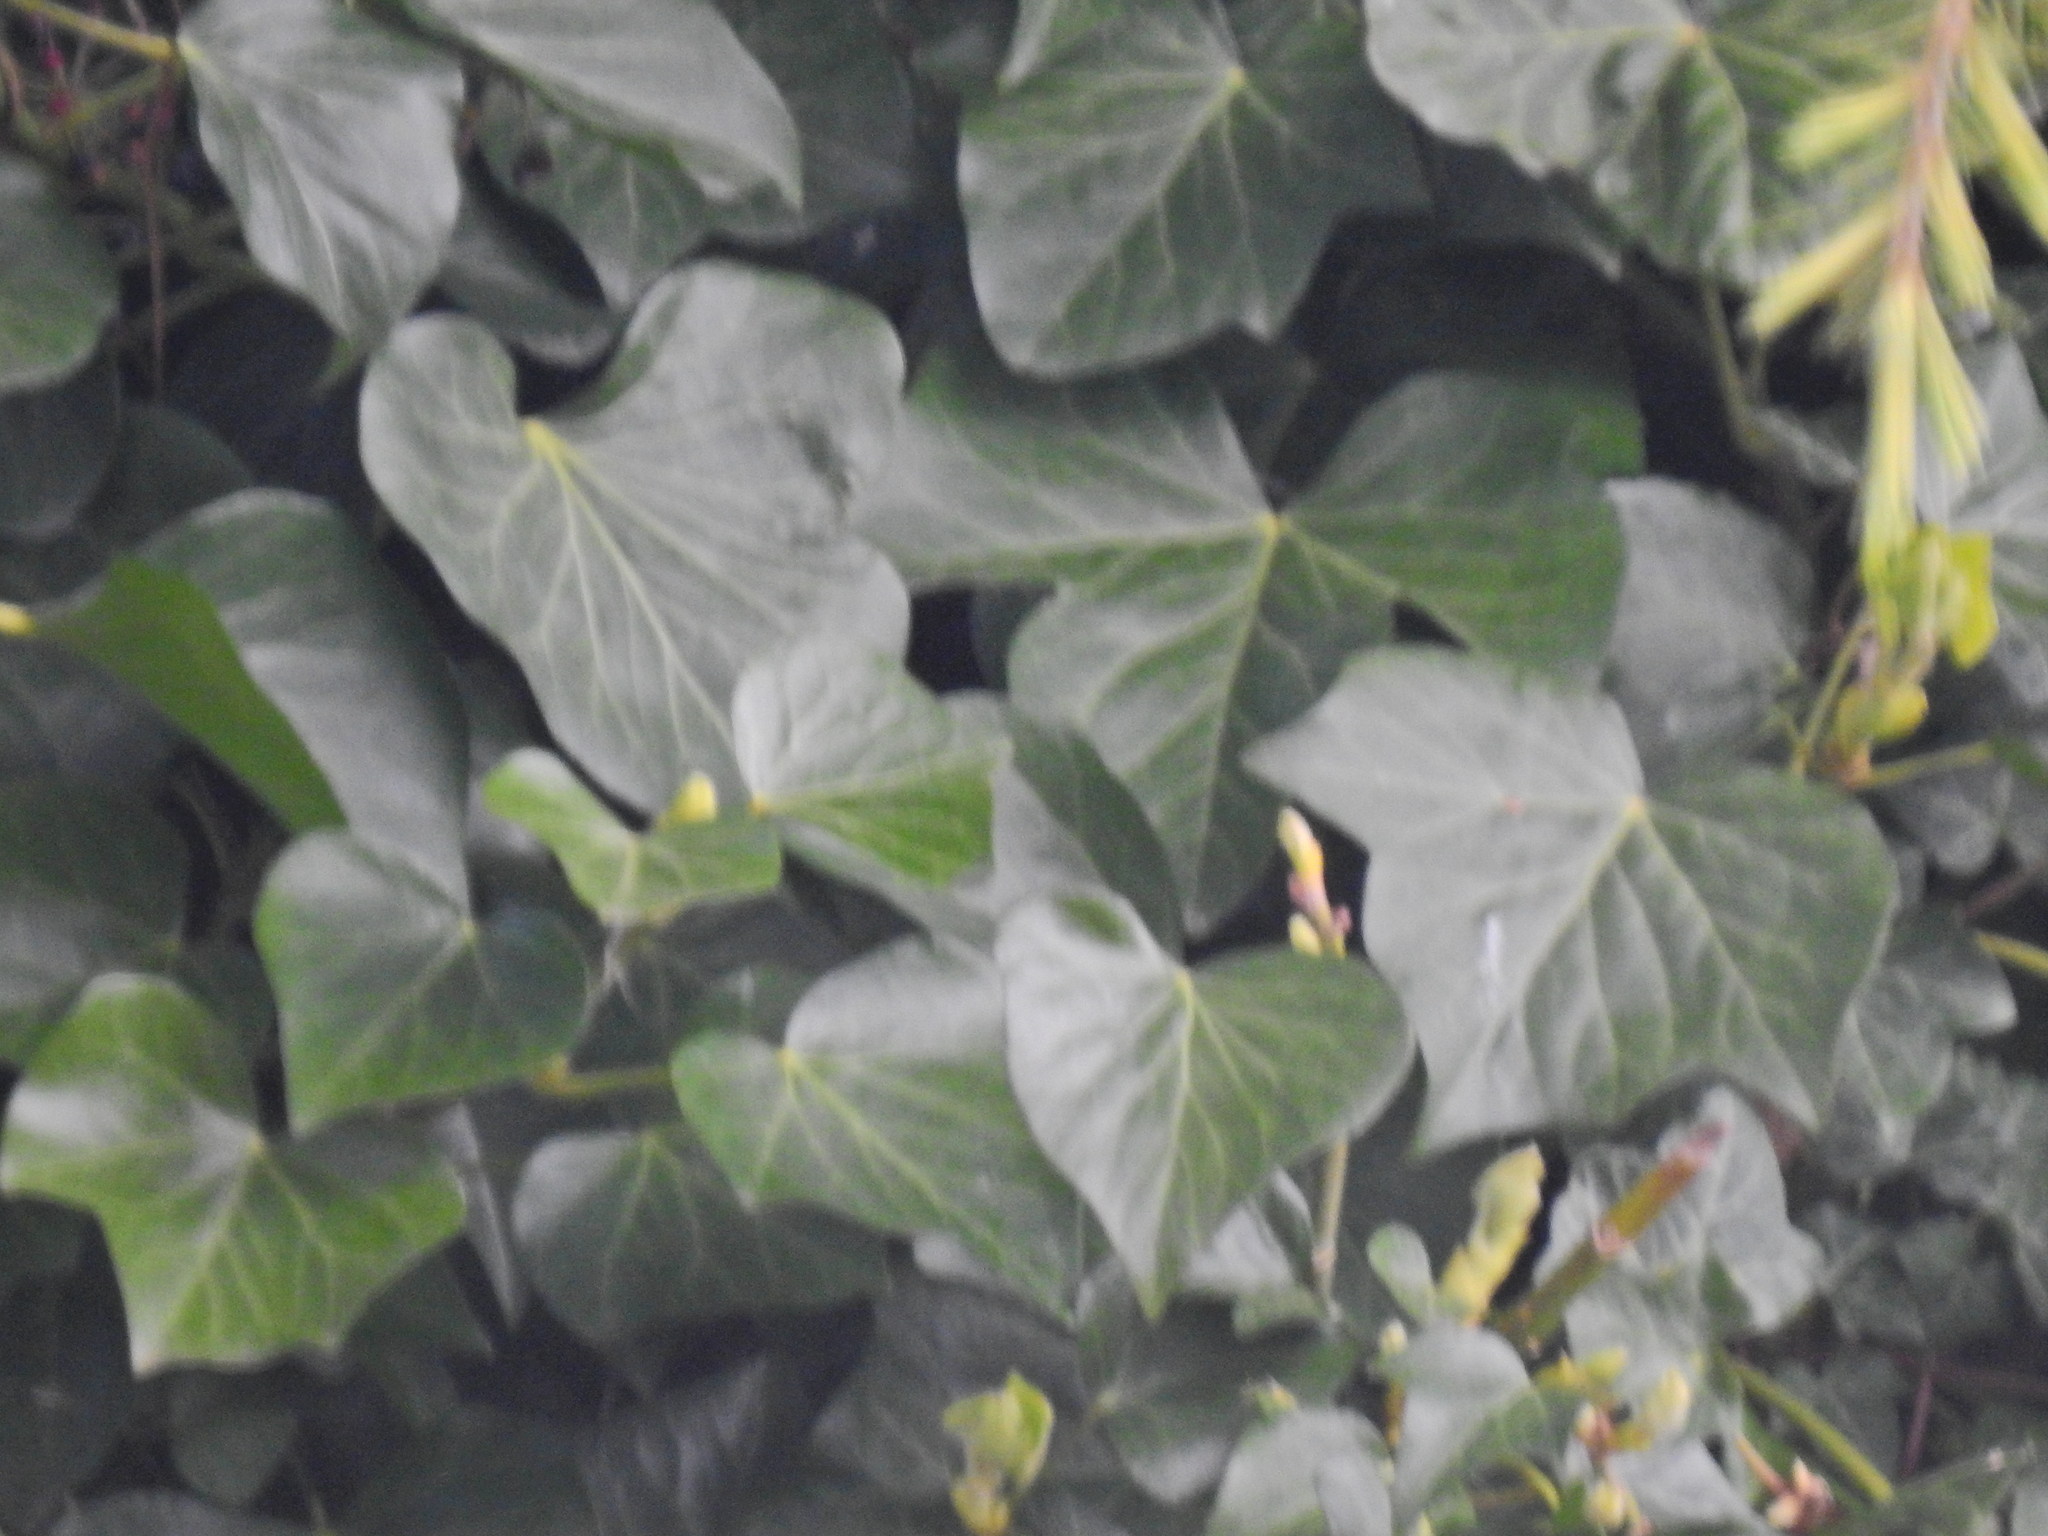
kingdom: Plantae
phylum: Tracheophyta
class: Magnoliopsida
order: Apiales
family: Araliaceae
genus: Hedera
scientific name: Hedera helix
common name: Ivy
